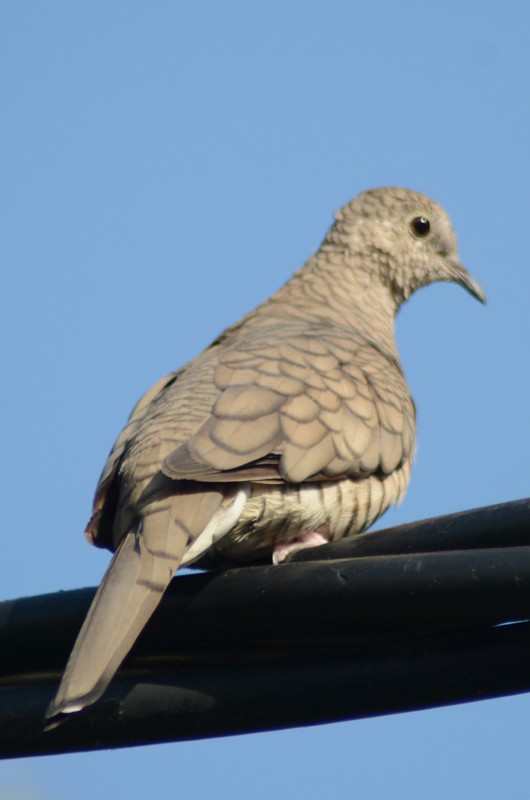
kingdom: Animalia
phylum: Chordata
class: Aves
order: Columbiformes
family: Columbidae
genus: Columbina
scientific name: Columbina inca
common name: Inca dove
